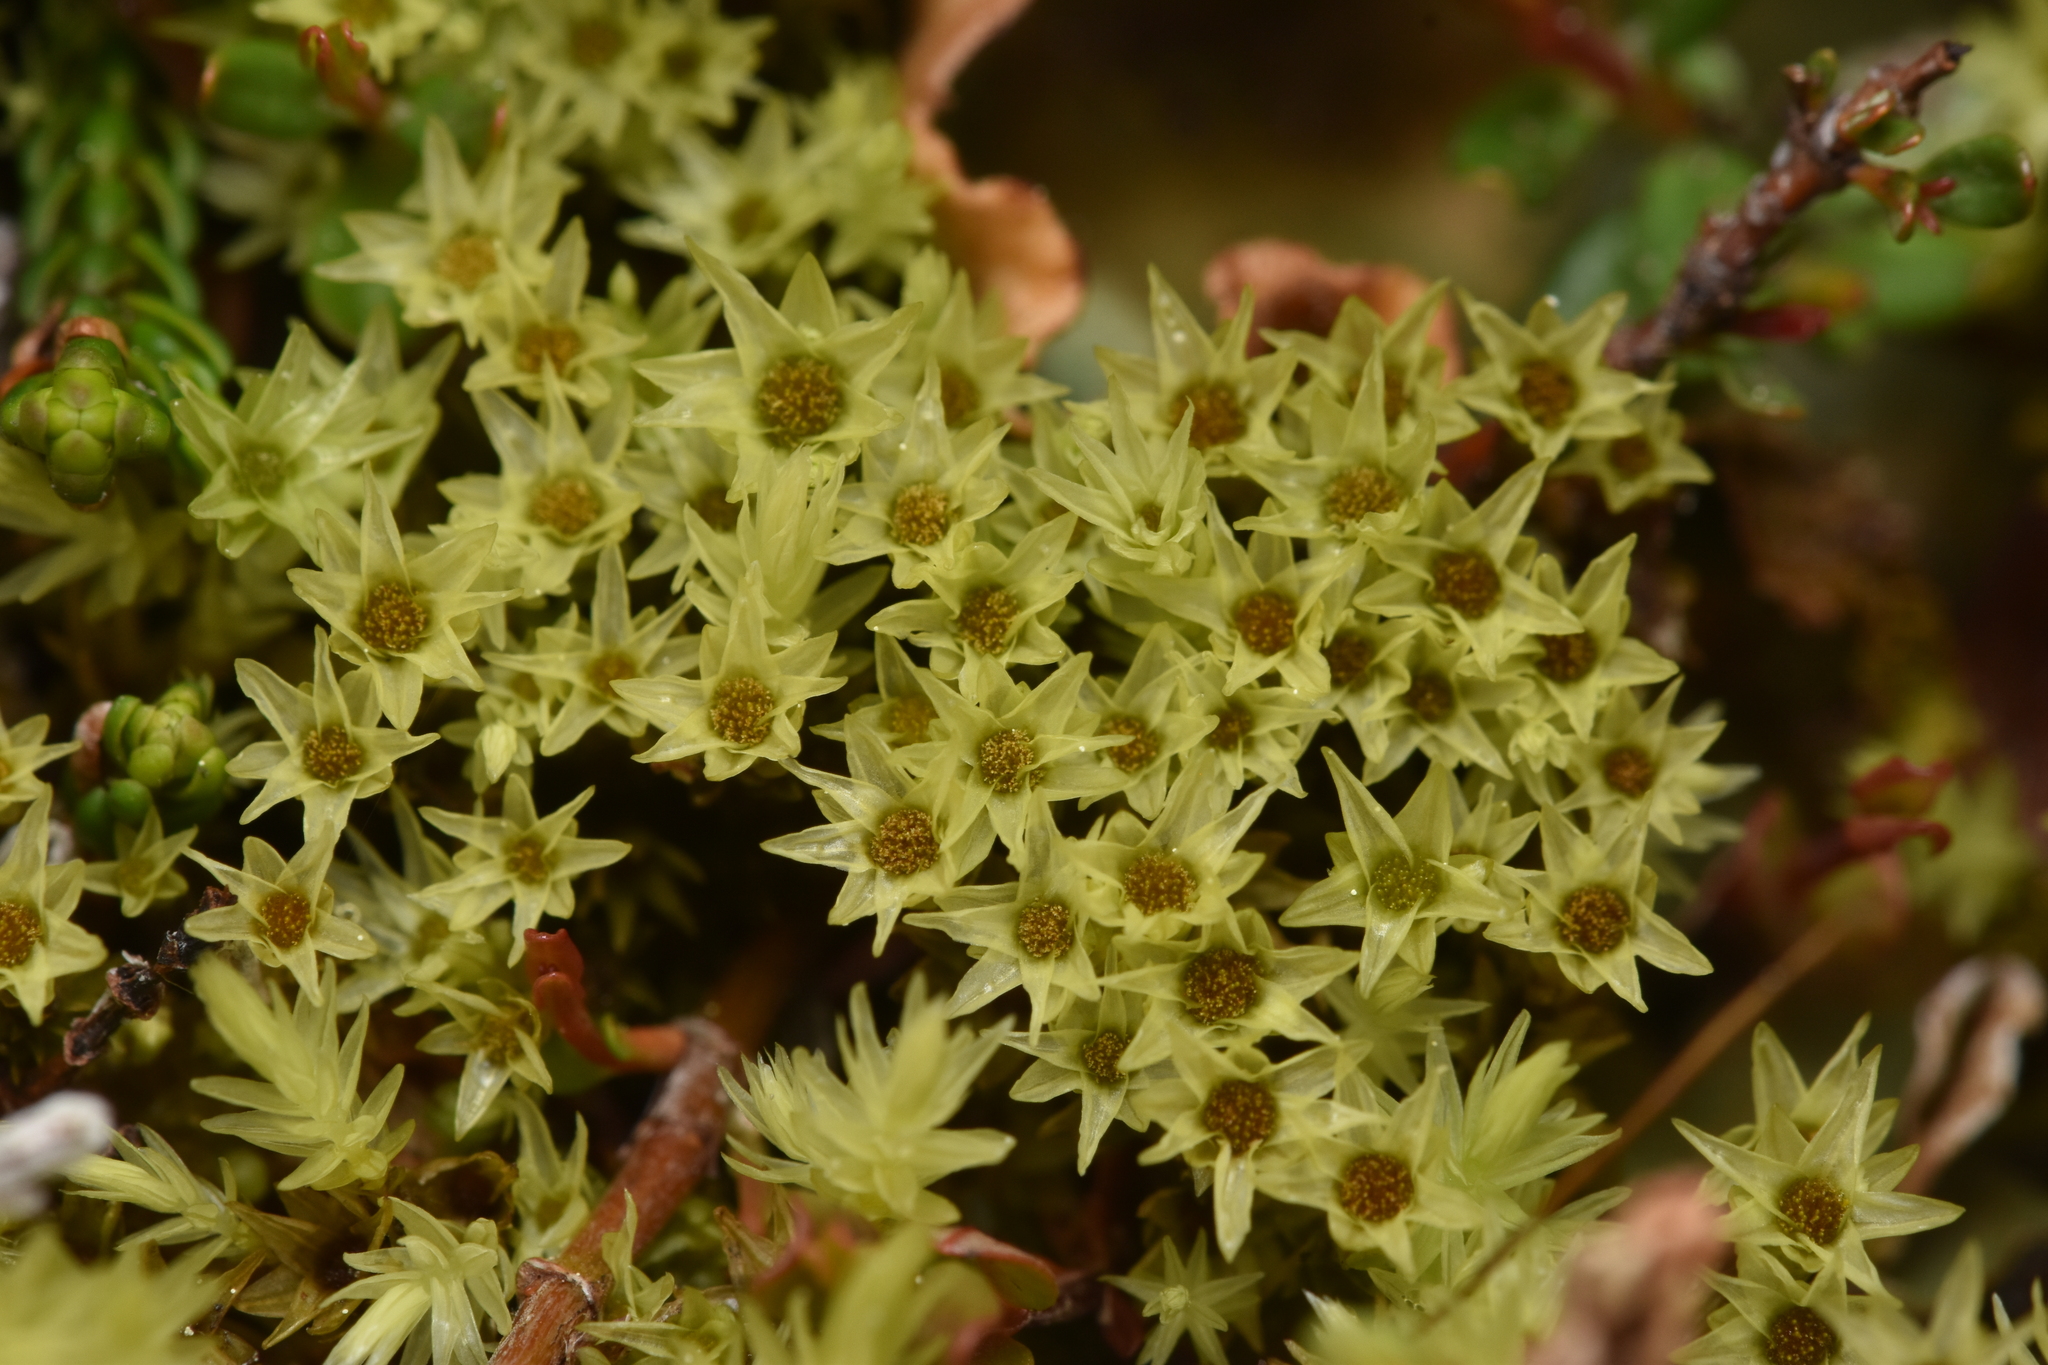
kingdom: Plantae
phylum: Bryophyta
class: Bryopsida
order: Aulacomniales
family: Aulacomniaceae
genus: Aulacomnium
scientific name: Aulacomnium palustre
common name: Bog groove-moss
